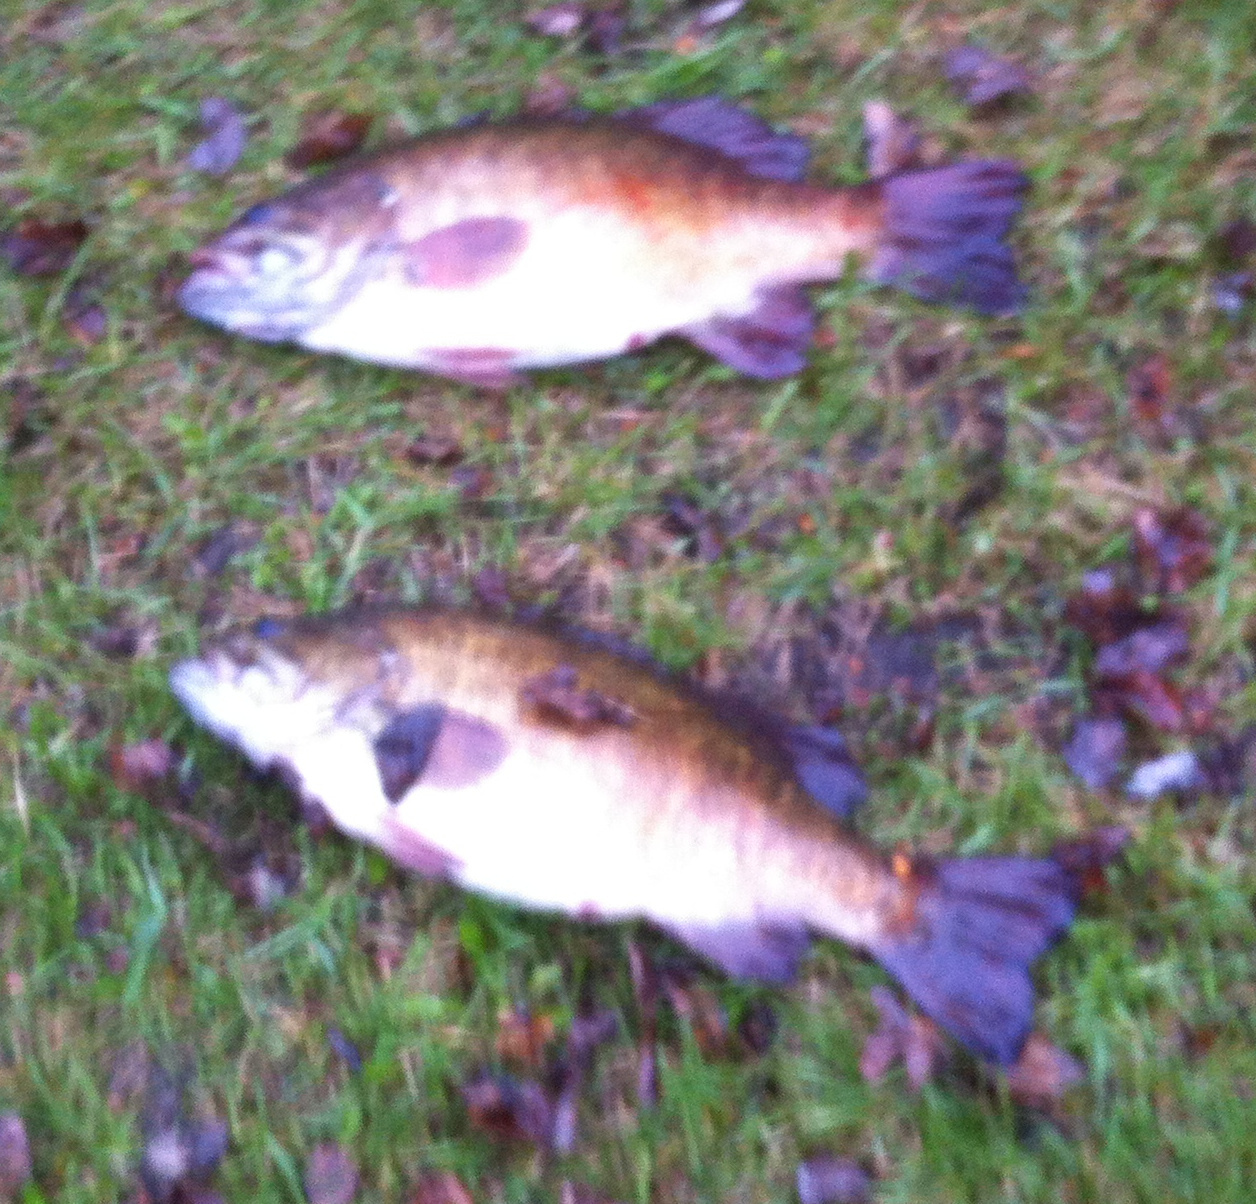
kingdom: Animalia
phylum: Chordata
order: Perciformes
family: Centrarchidae
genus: Micropterus
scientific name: Micropterus dolomieu
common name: Smallmouth bass
